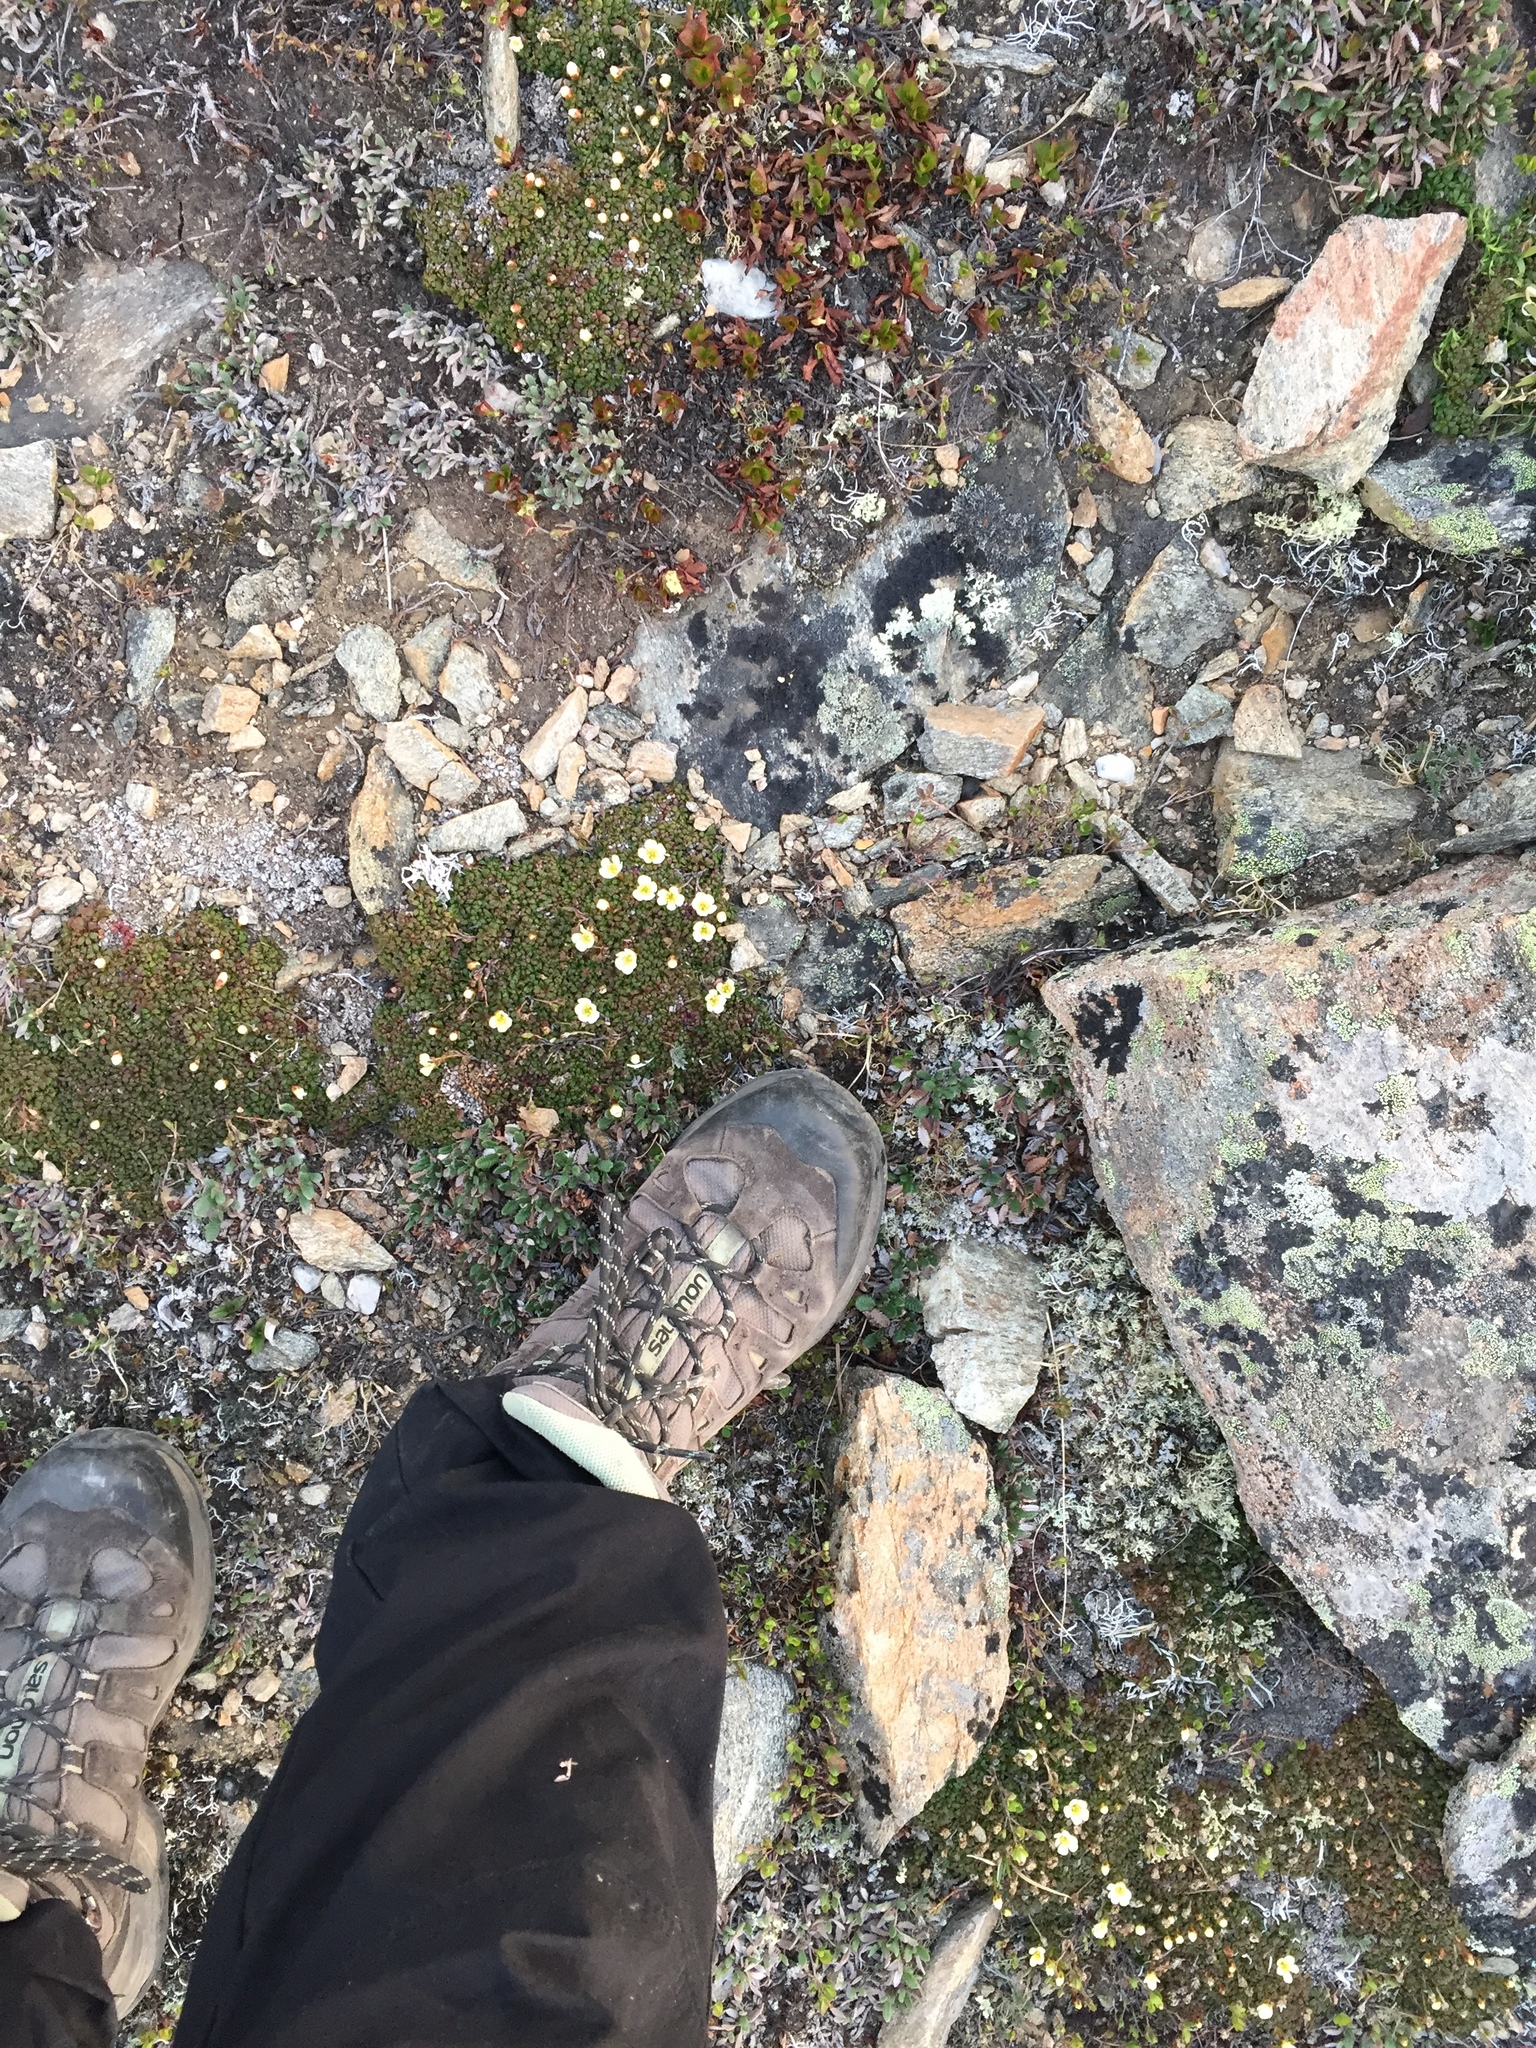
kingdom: Plantae
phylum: Tracheophyta
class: Magnoliopsida
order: Ericales
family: Diapensiaceae
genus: Diapensia
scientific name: Diapensia obovata
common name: Alaska diapensia
